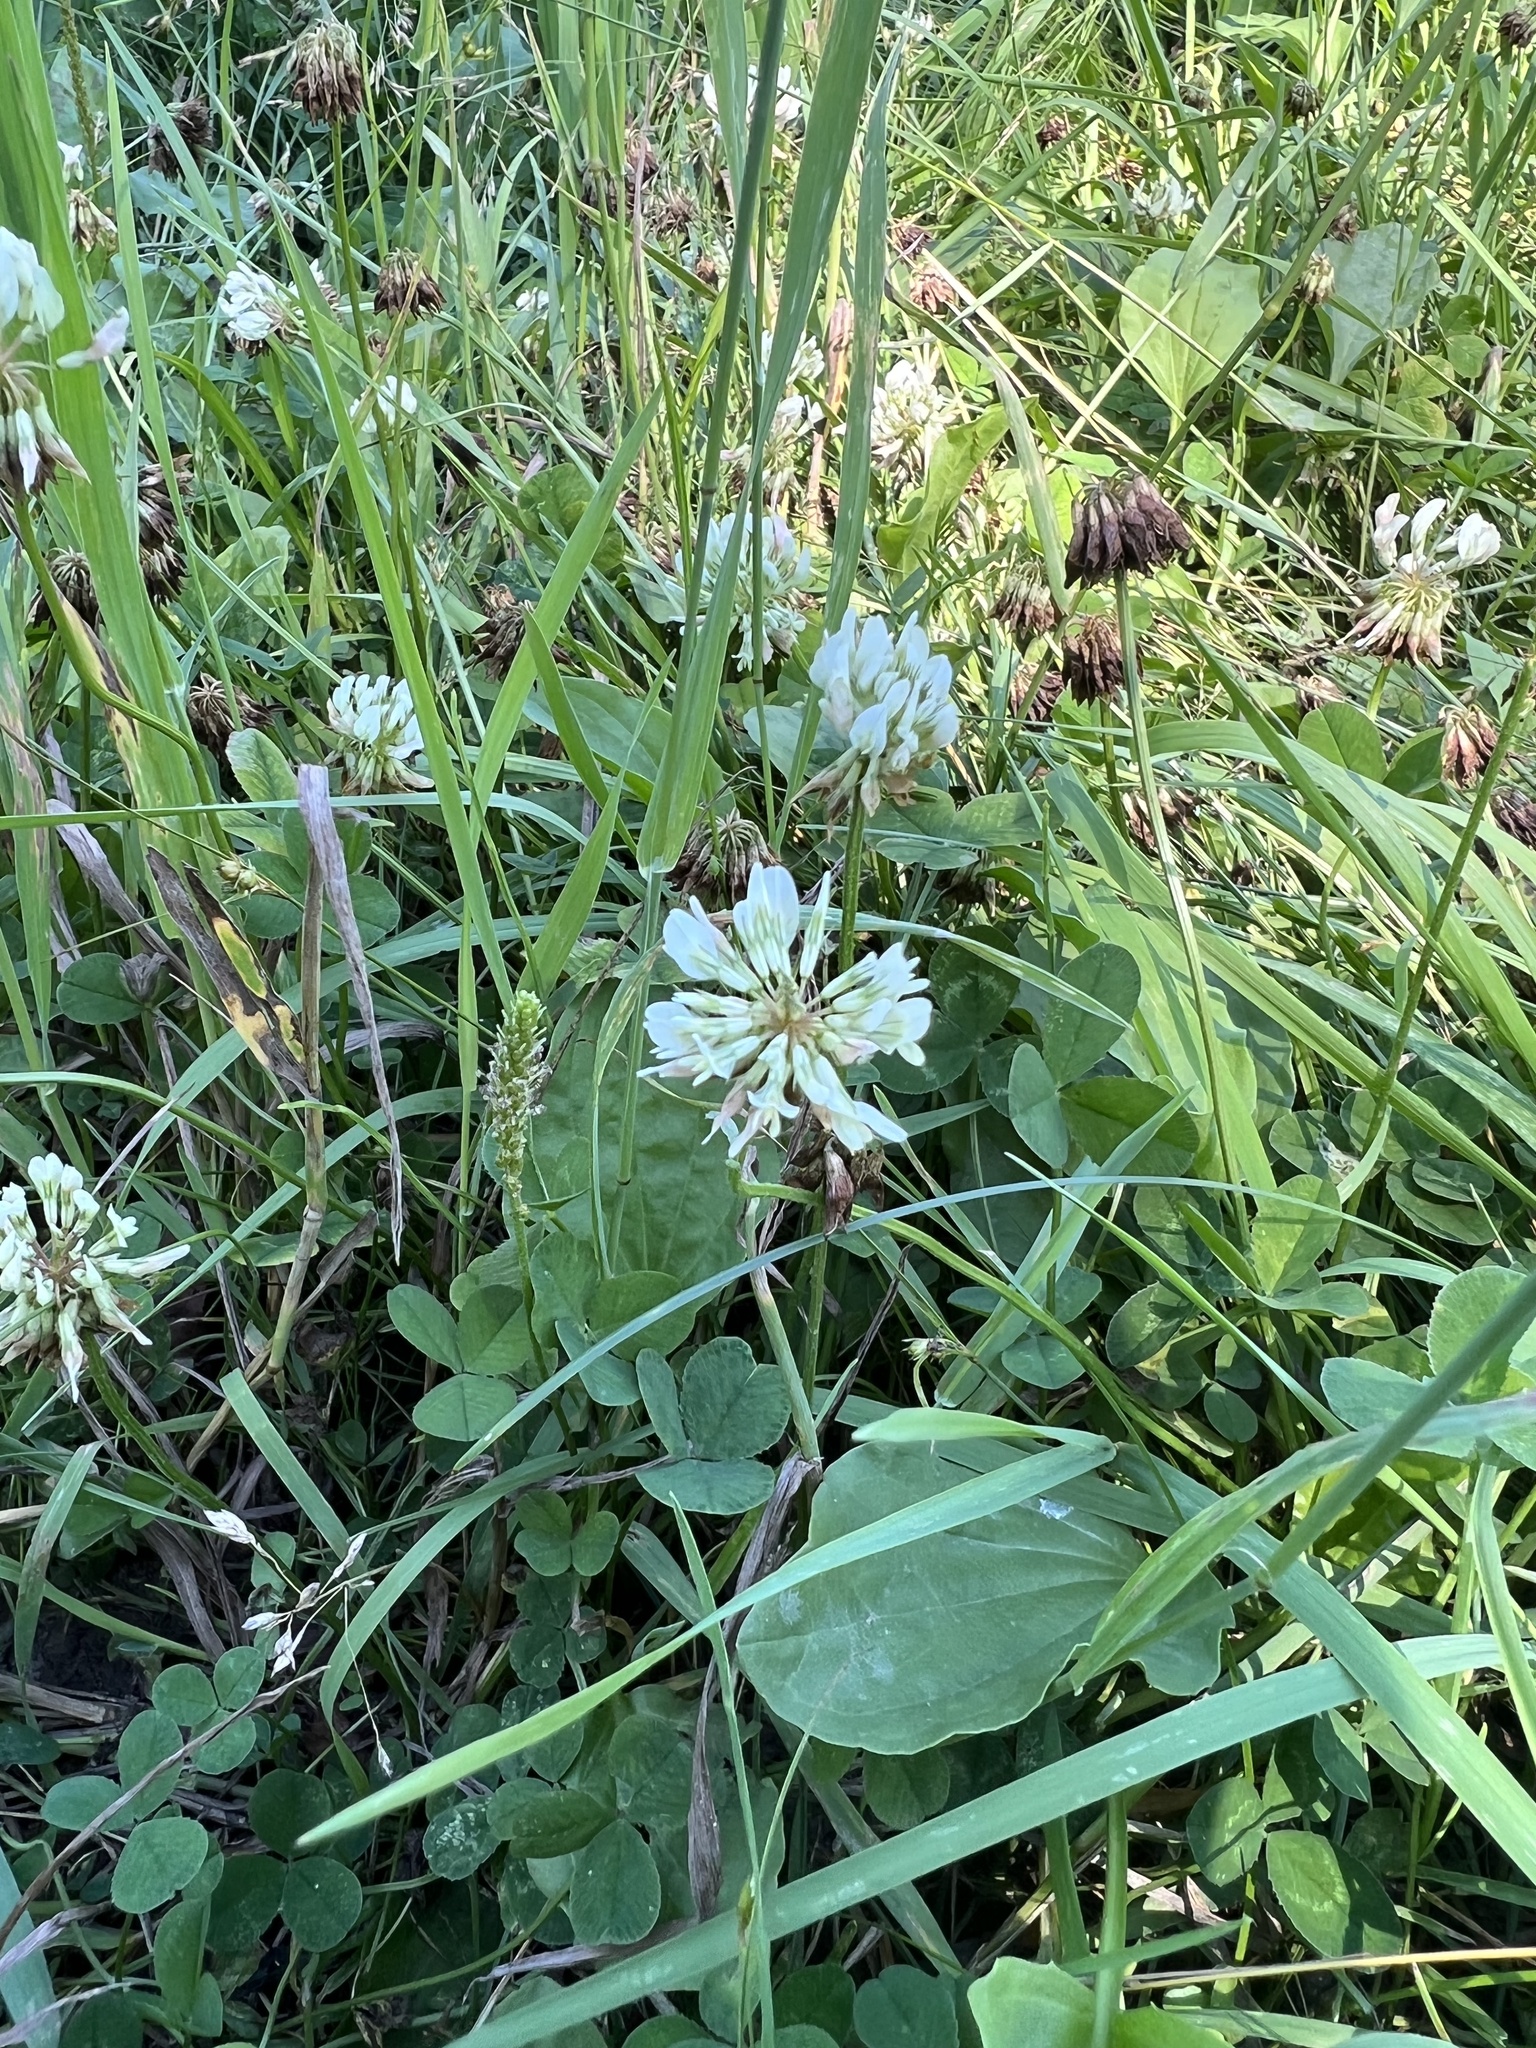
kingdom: Plantae
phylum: Tracheophyta
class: Magnoliopsida
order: Fabales
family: Fabaceae
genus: Trifolium
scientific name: Trifolium repens
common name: White clover
